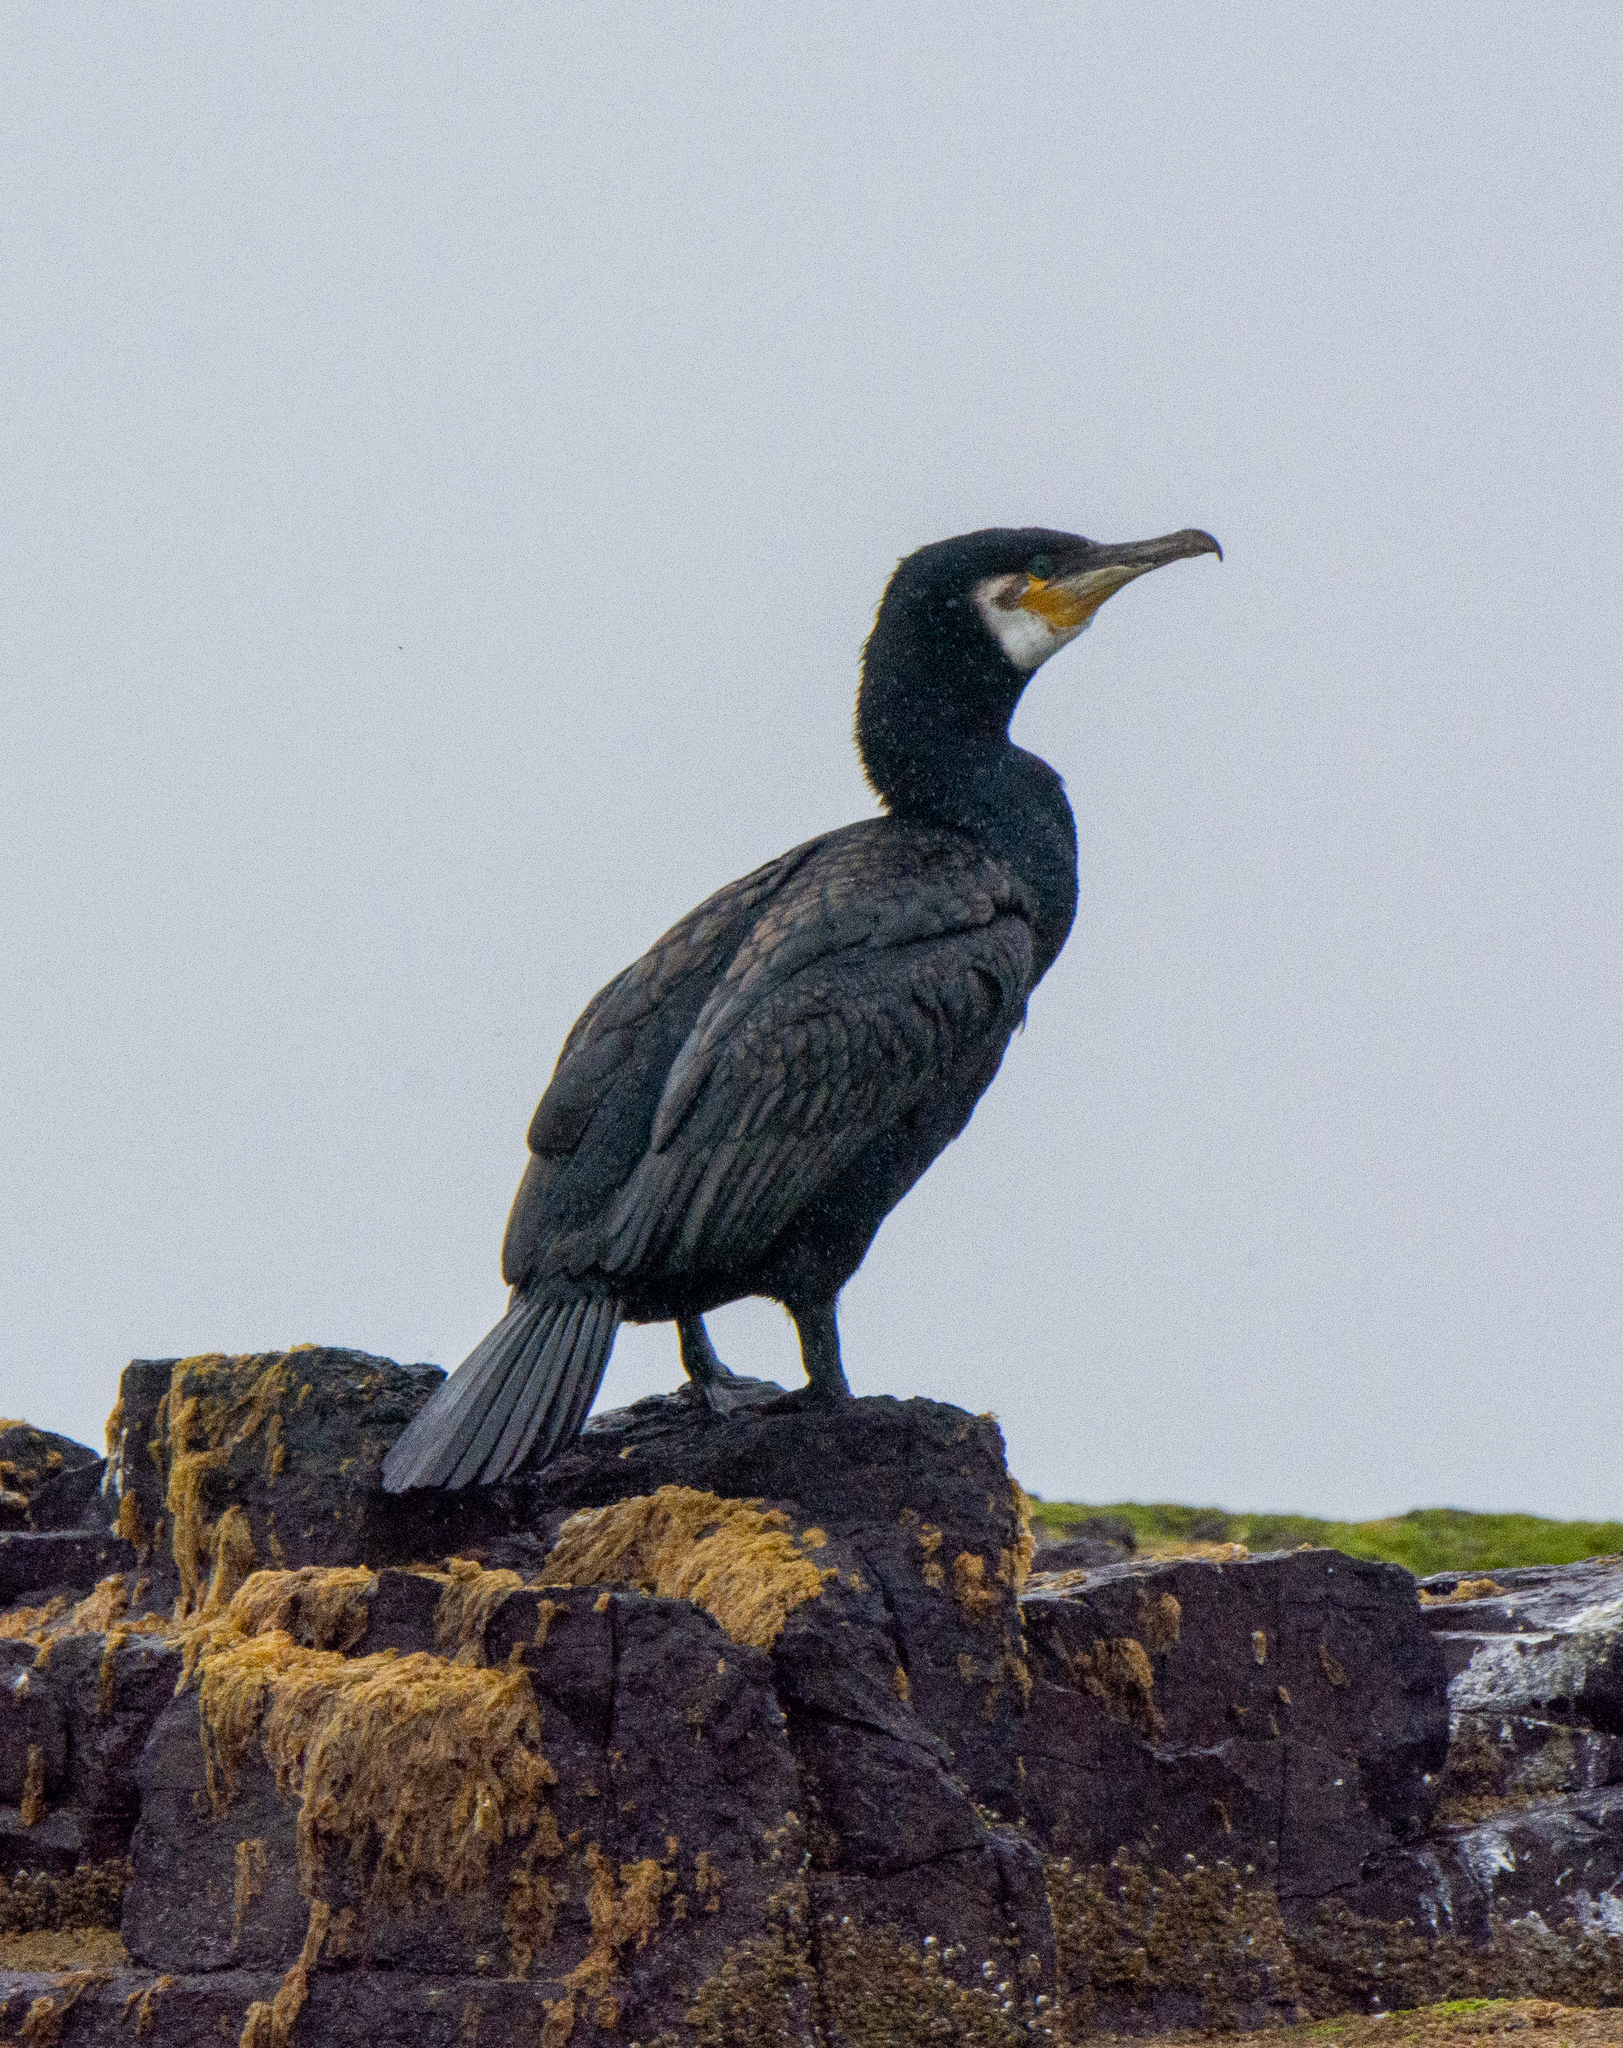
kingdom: Animalia
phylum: Chordata
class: Aves
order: Suliformes
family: Phalacrocoracidae
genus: Phalacrocorax
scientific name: Phalacrocorax carbo
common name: Great cormorant
